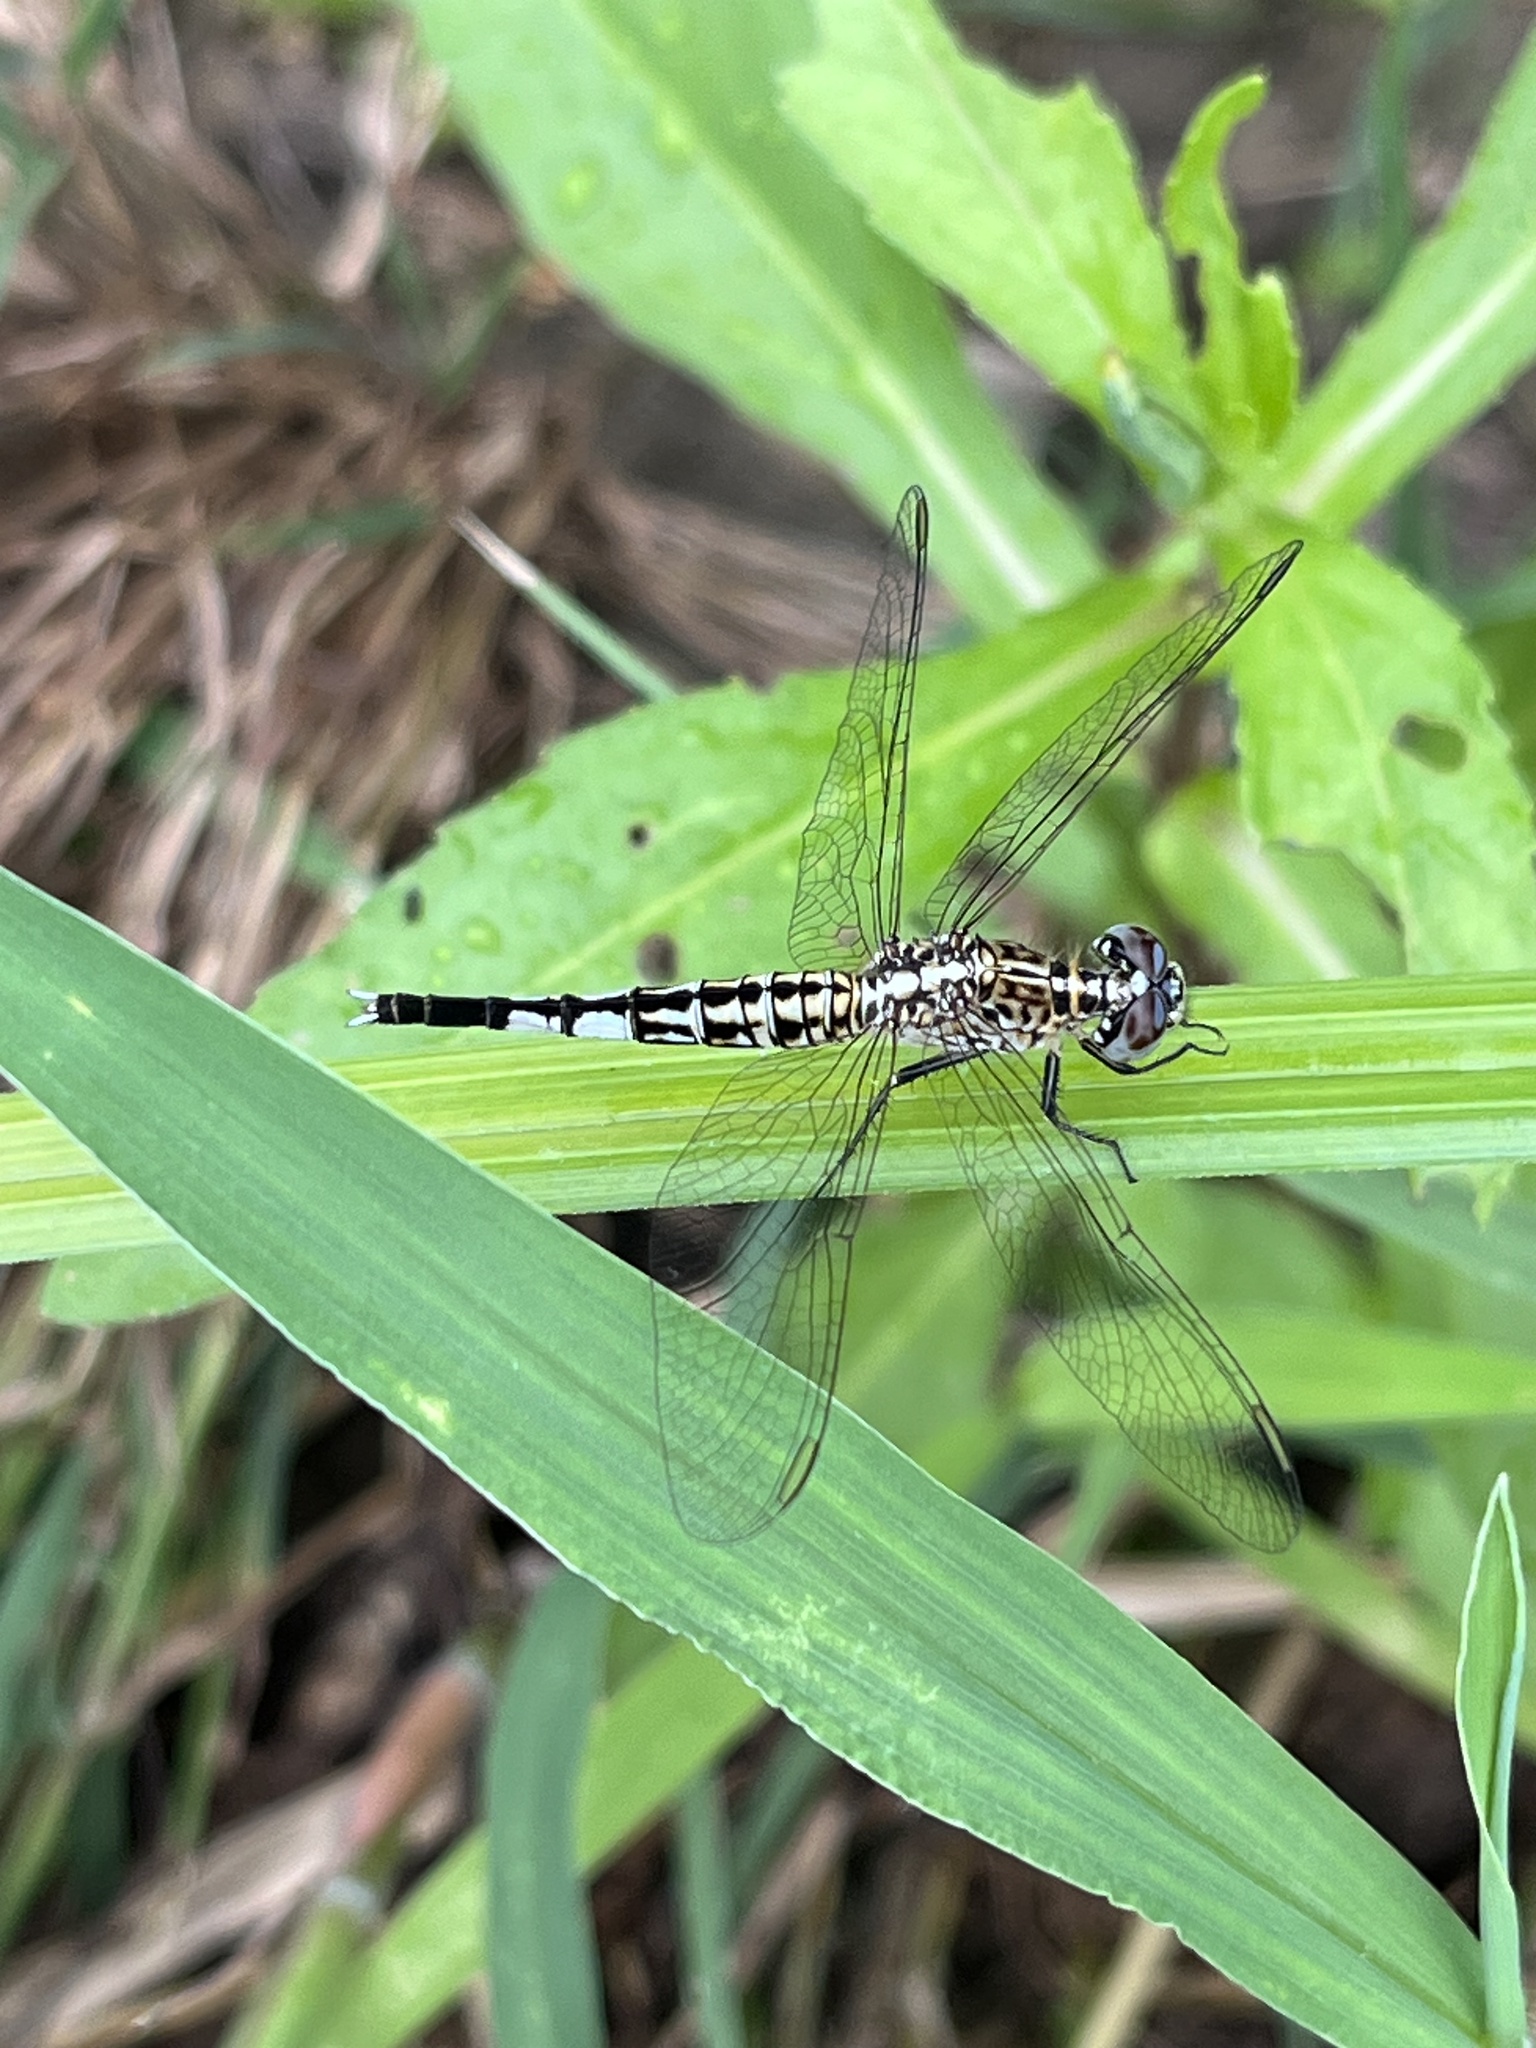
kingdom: Animalia
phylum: Arthropoda
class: Insecta
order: Odonata
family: Libellulidae
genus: Acisoma
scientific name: Acisoma panorpoides
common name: Asian pintail
